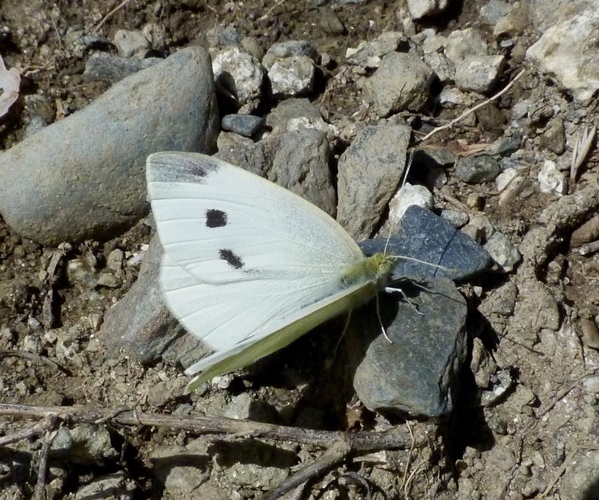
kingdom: Animalia
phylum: Arthropoda
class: Insecta
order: Lepidoptera
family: Pieridae
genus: Pieris
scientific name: Pieris rapae
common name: Small white
